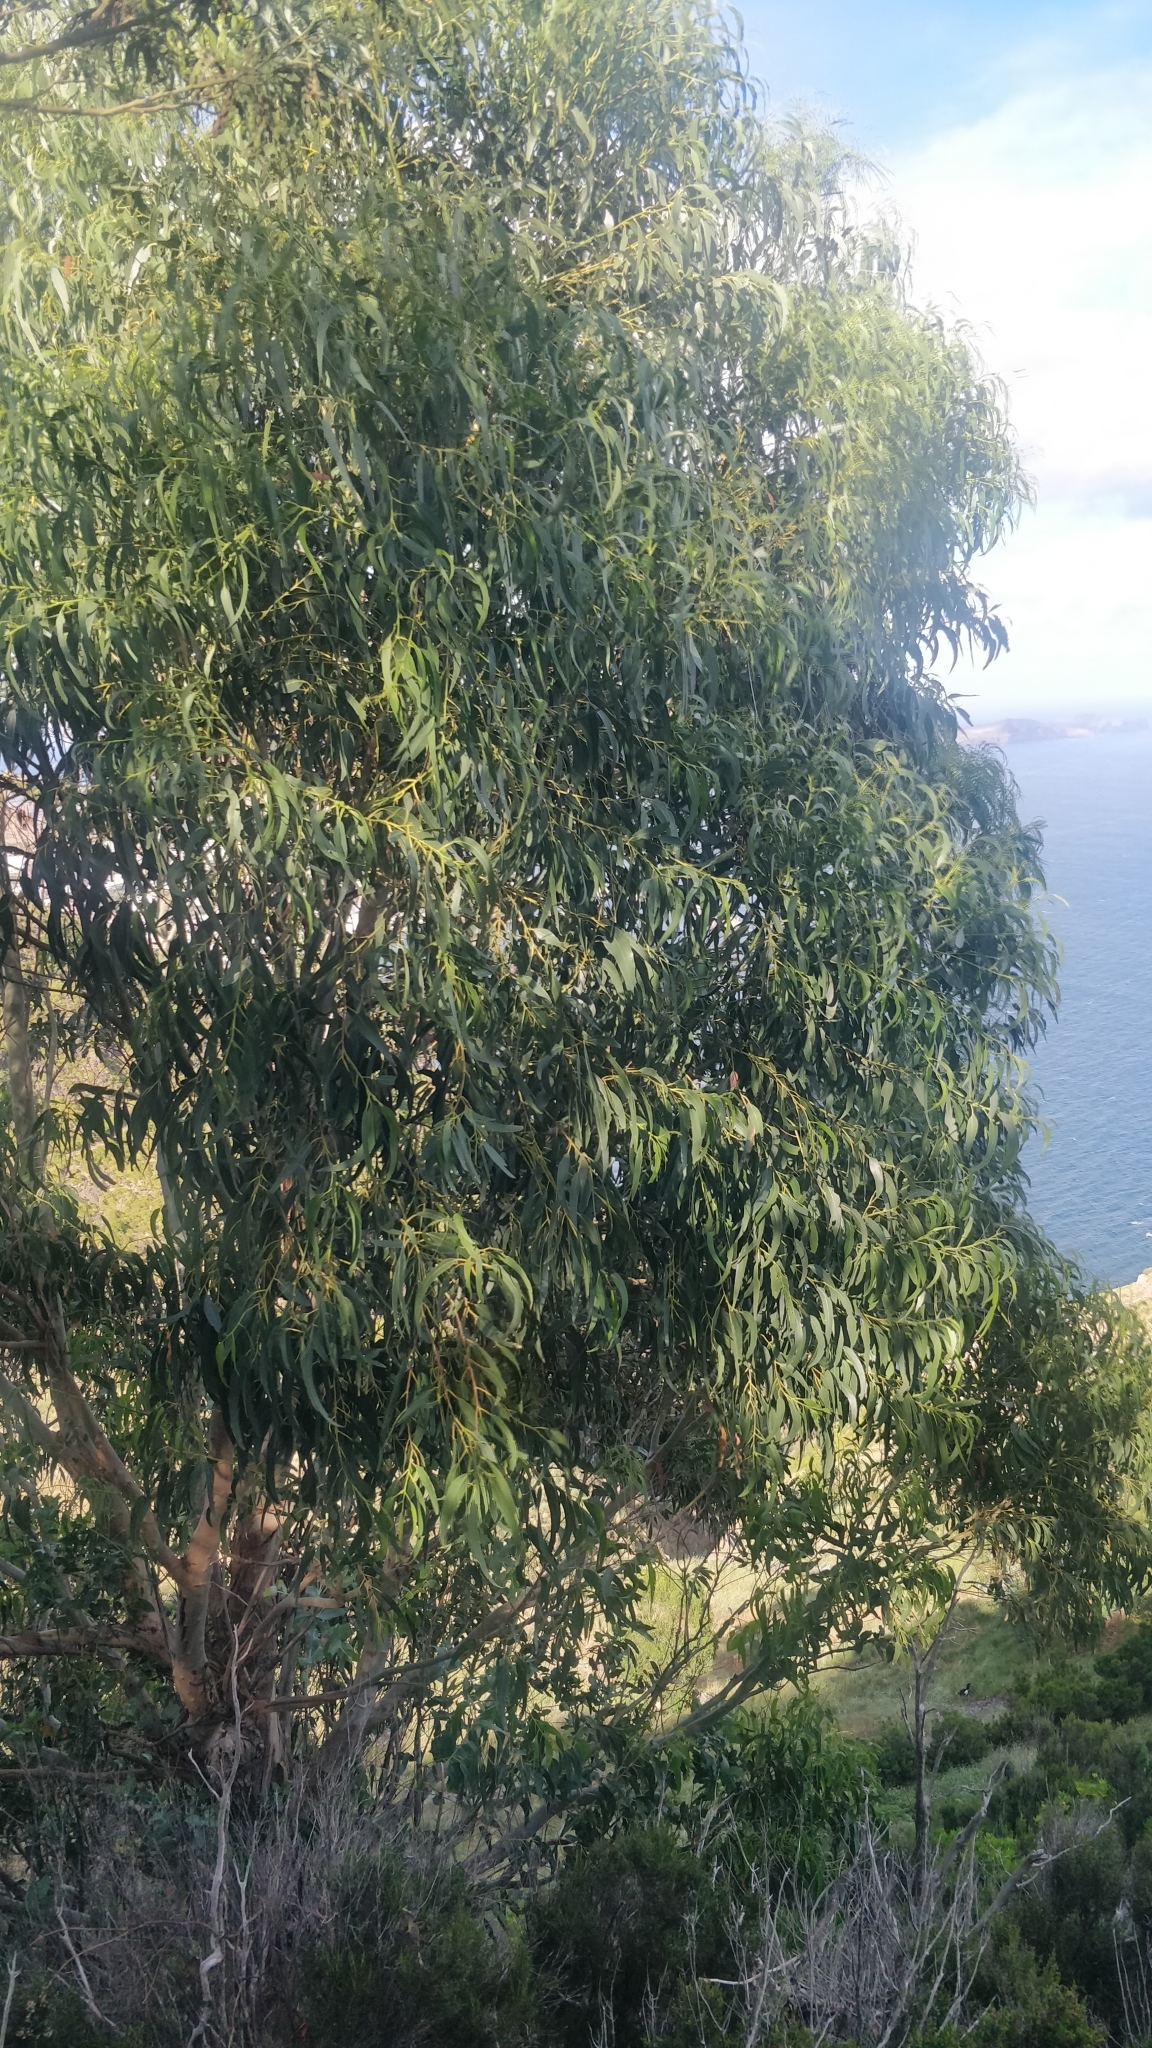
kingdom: Plantae
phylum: Tracheophyta
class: Magnoliopsida
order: Myrtales
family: Myrtaceae
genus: Eucalyptus
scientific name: Eucalyptus globulus
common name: Southern blue-gum
